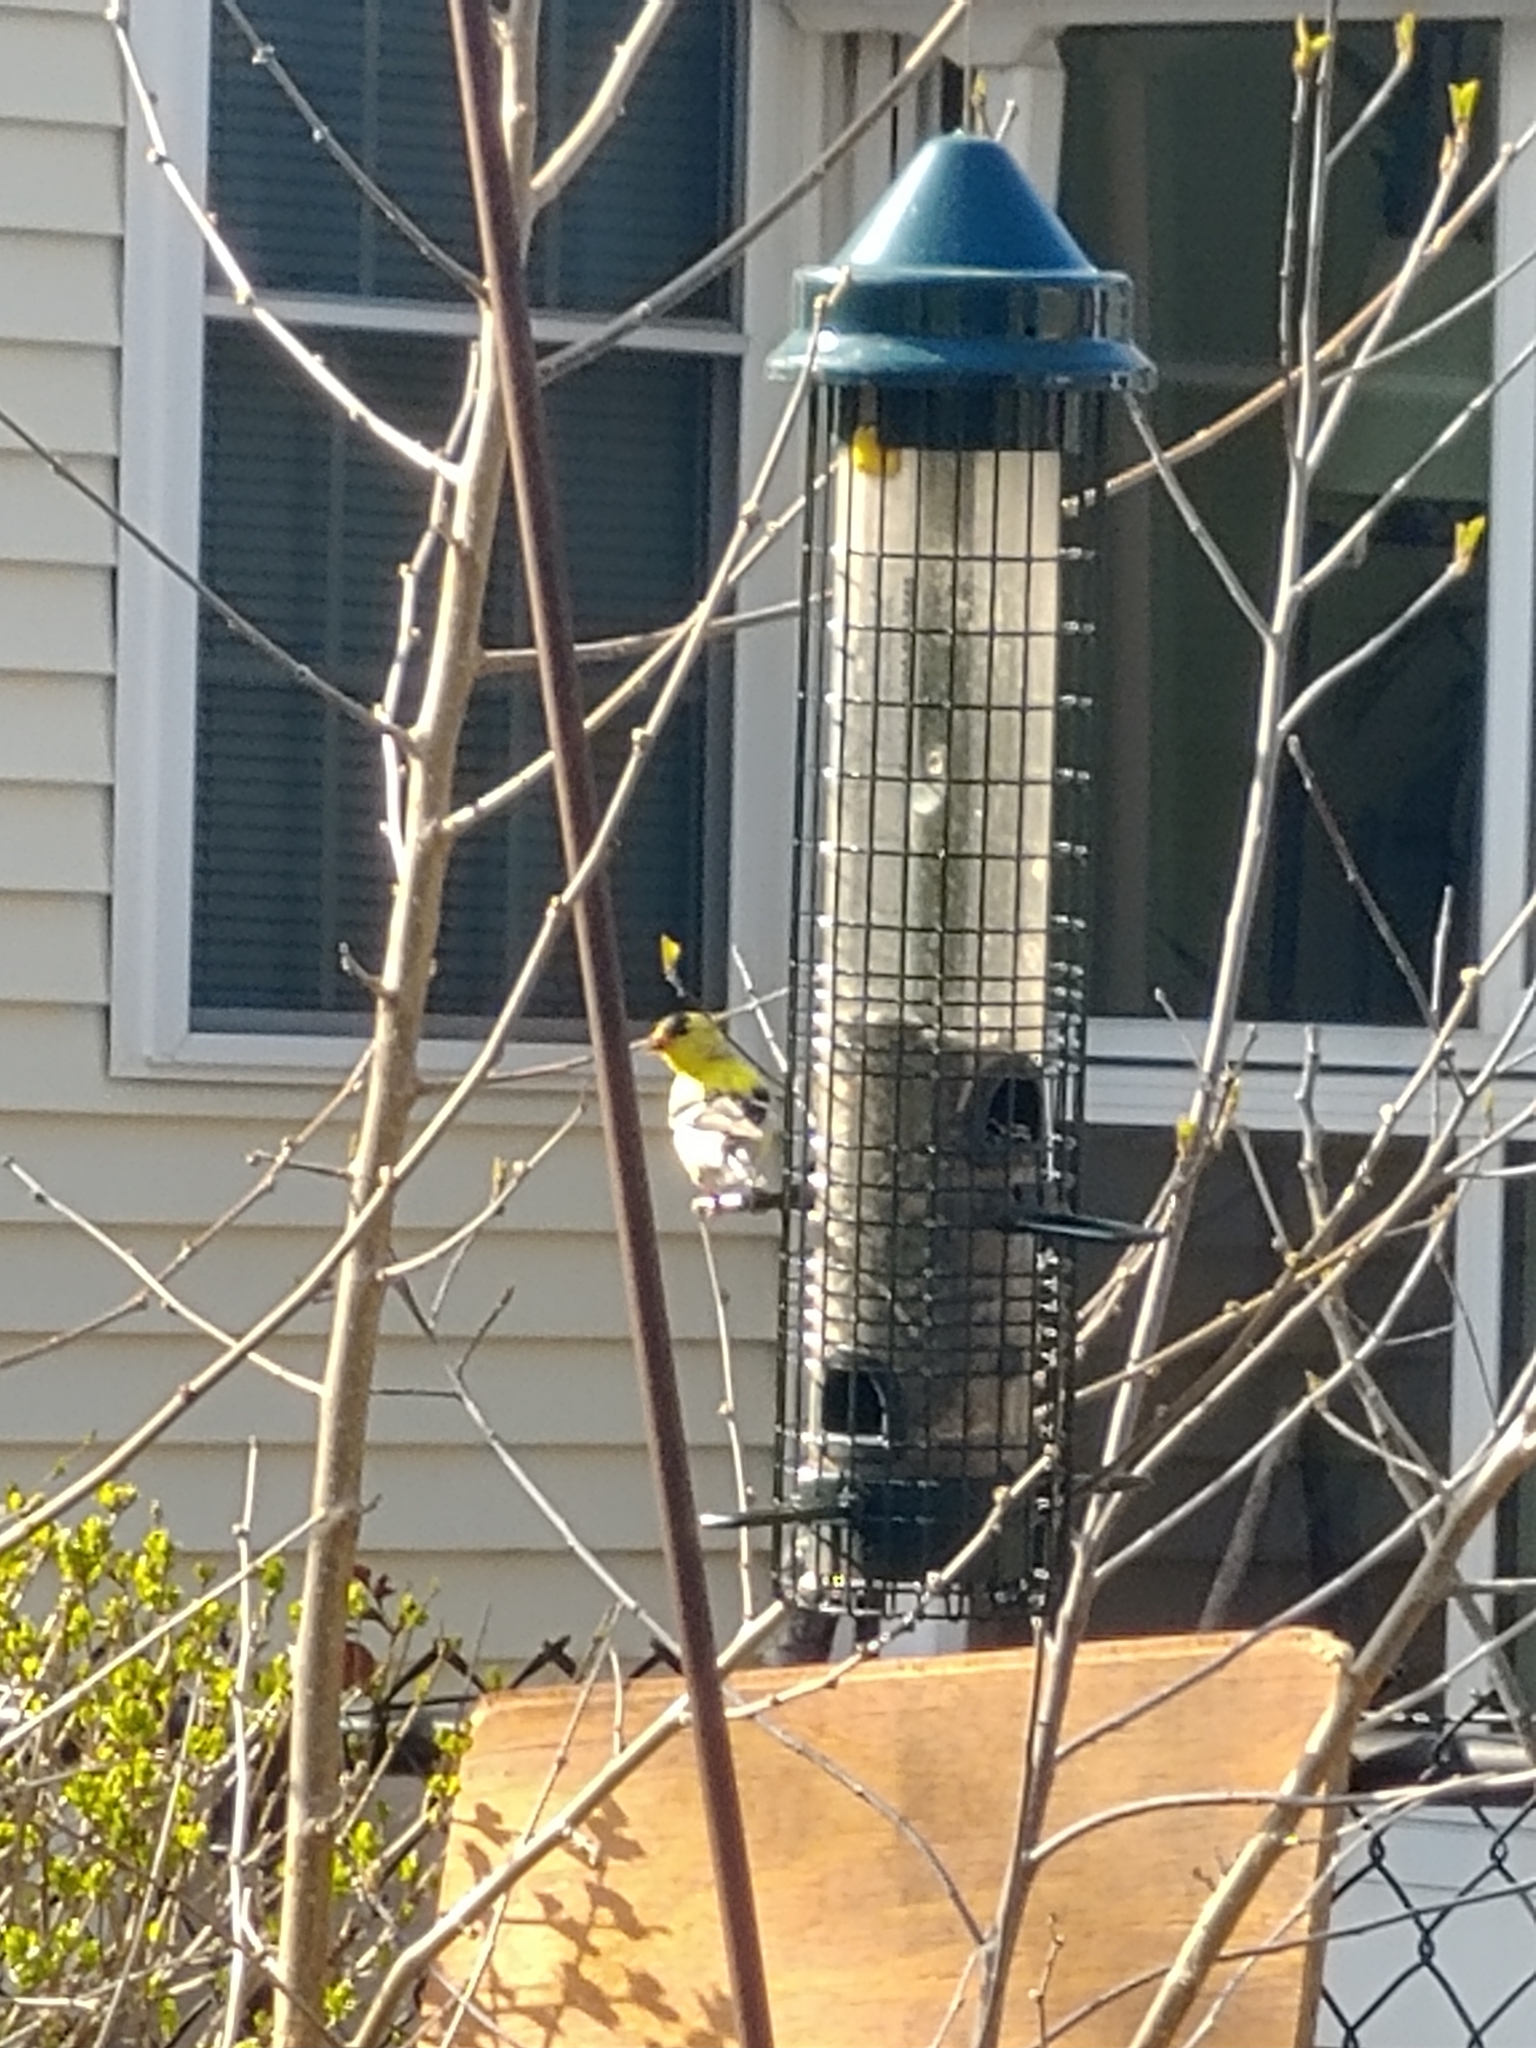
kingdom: Animalia
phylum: Chordata
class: Aves
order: Passeriformes
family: Fringillidae
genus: Spinus
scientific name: Spinus tristis
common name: American goldfinch
